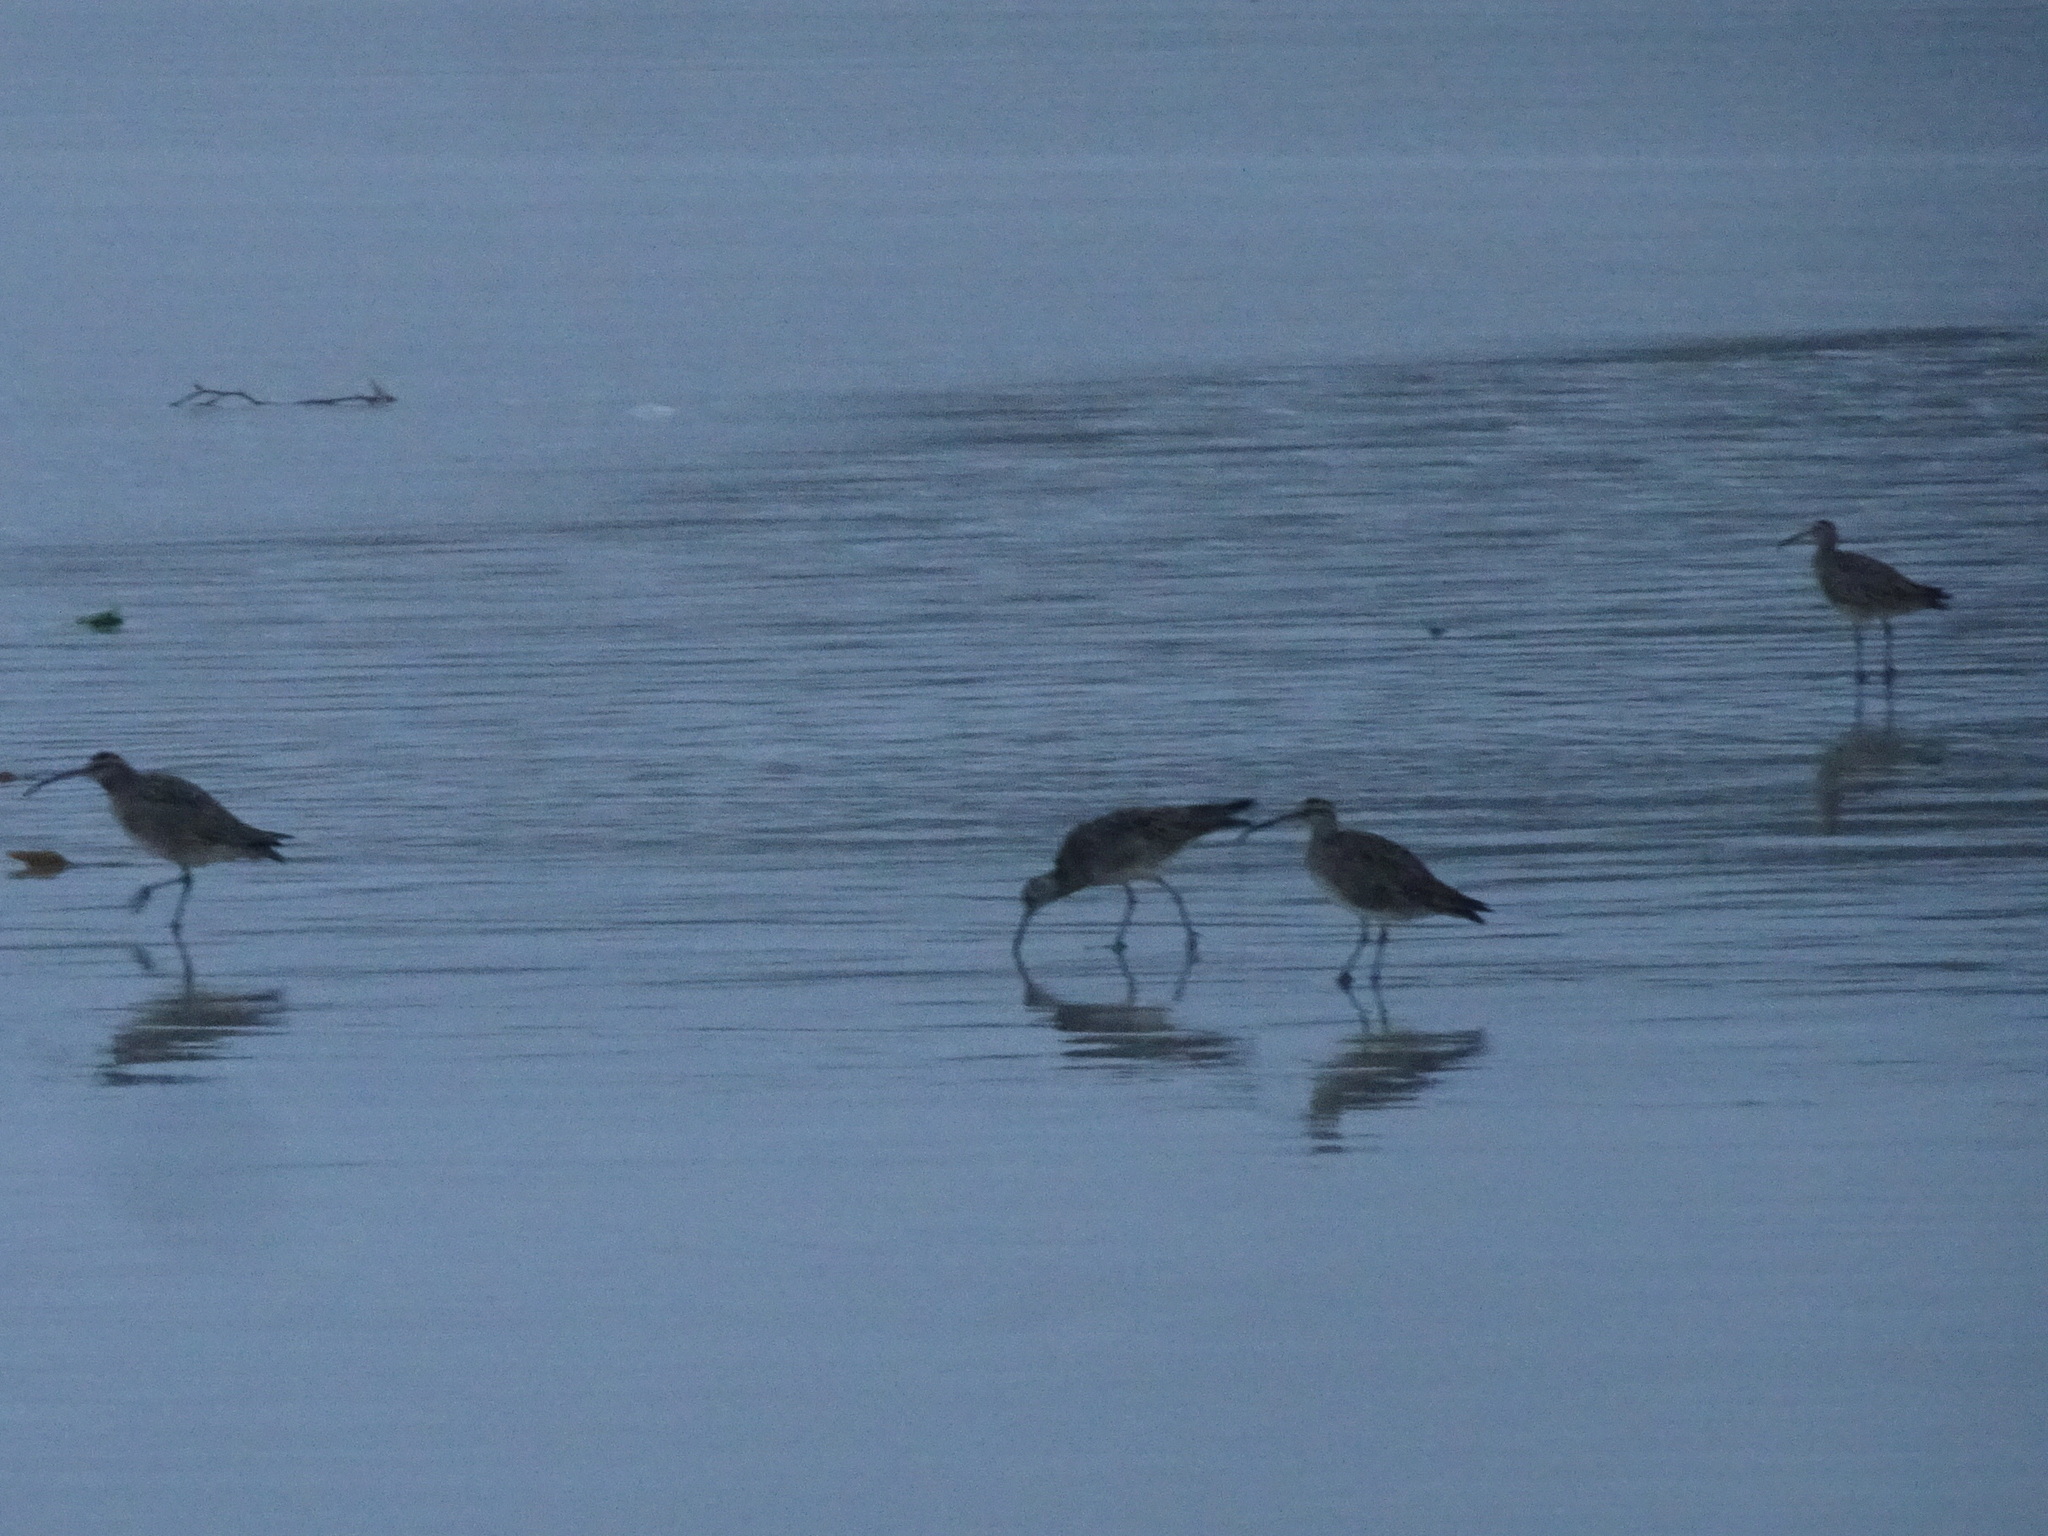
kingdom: Animalia
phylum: Chordata
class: Aves
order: Charadriiformes
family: Scolopacidae
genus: Numenius
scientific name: Numenius phaeopus
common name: Whimbrel
